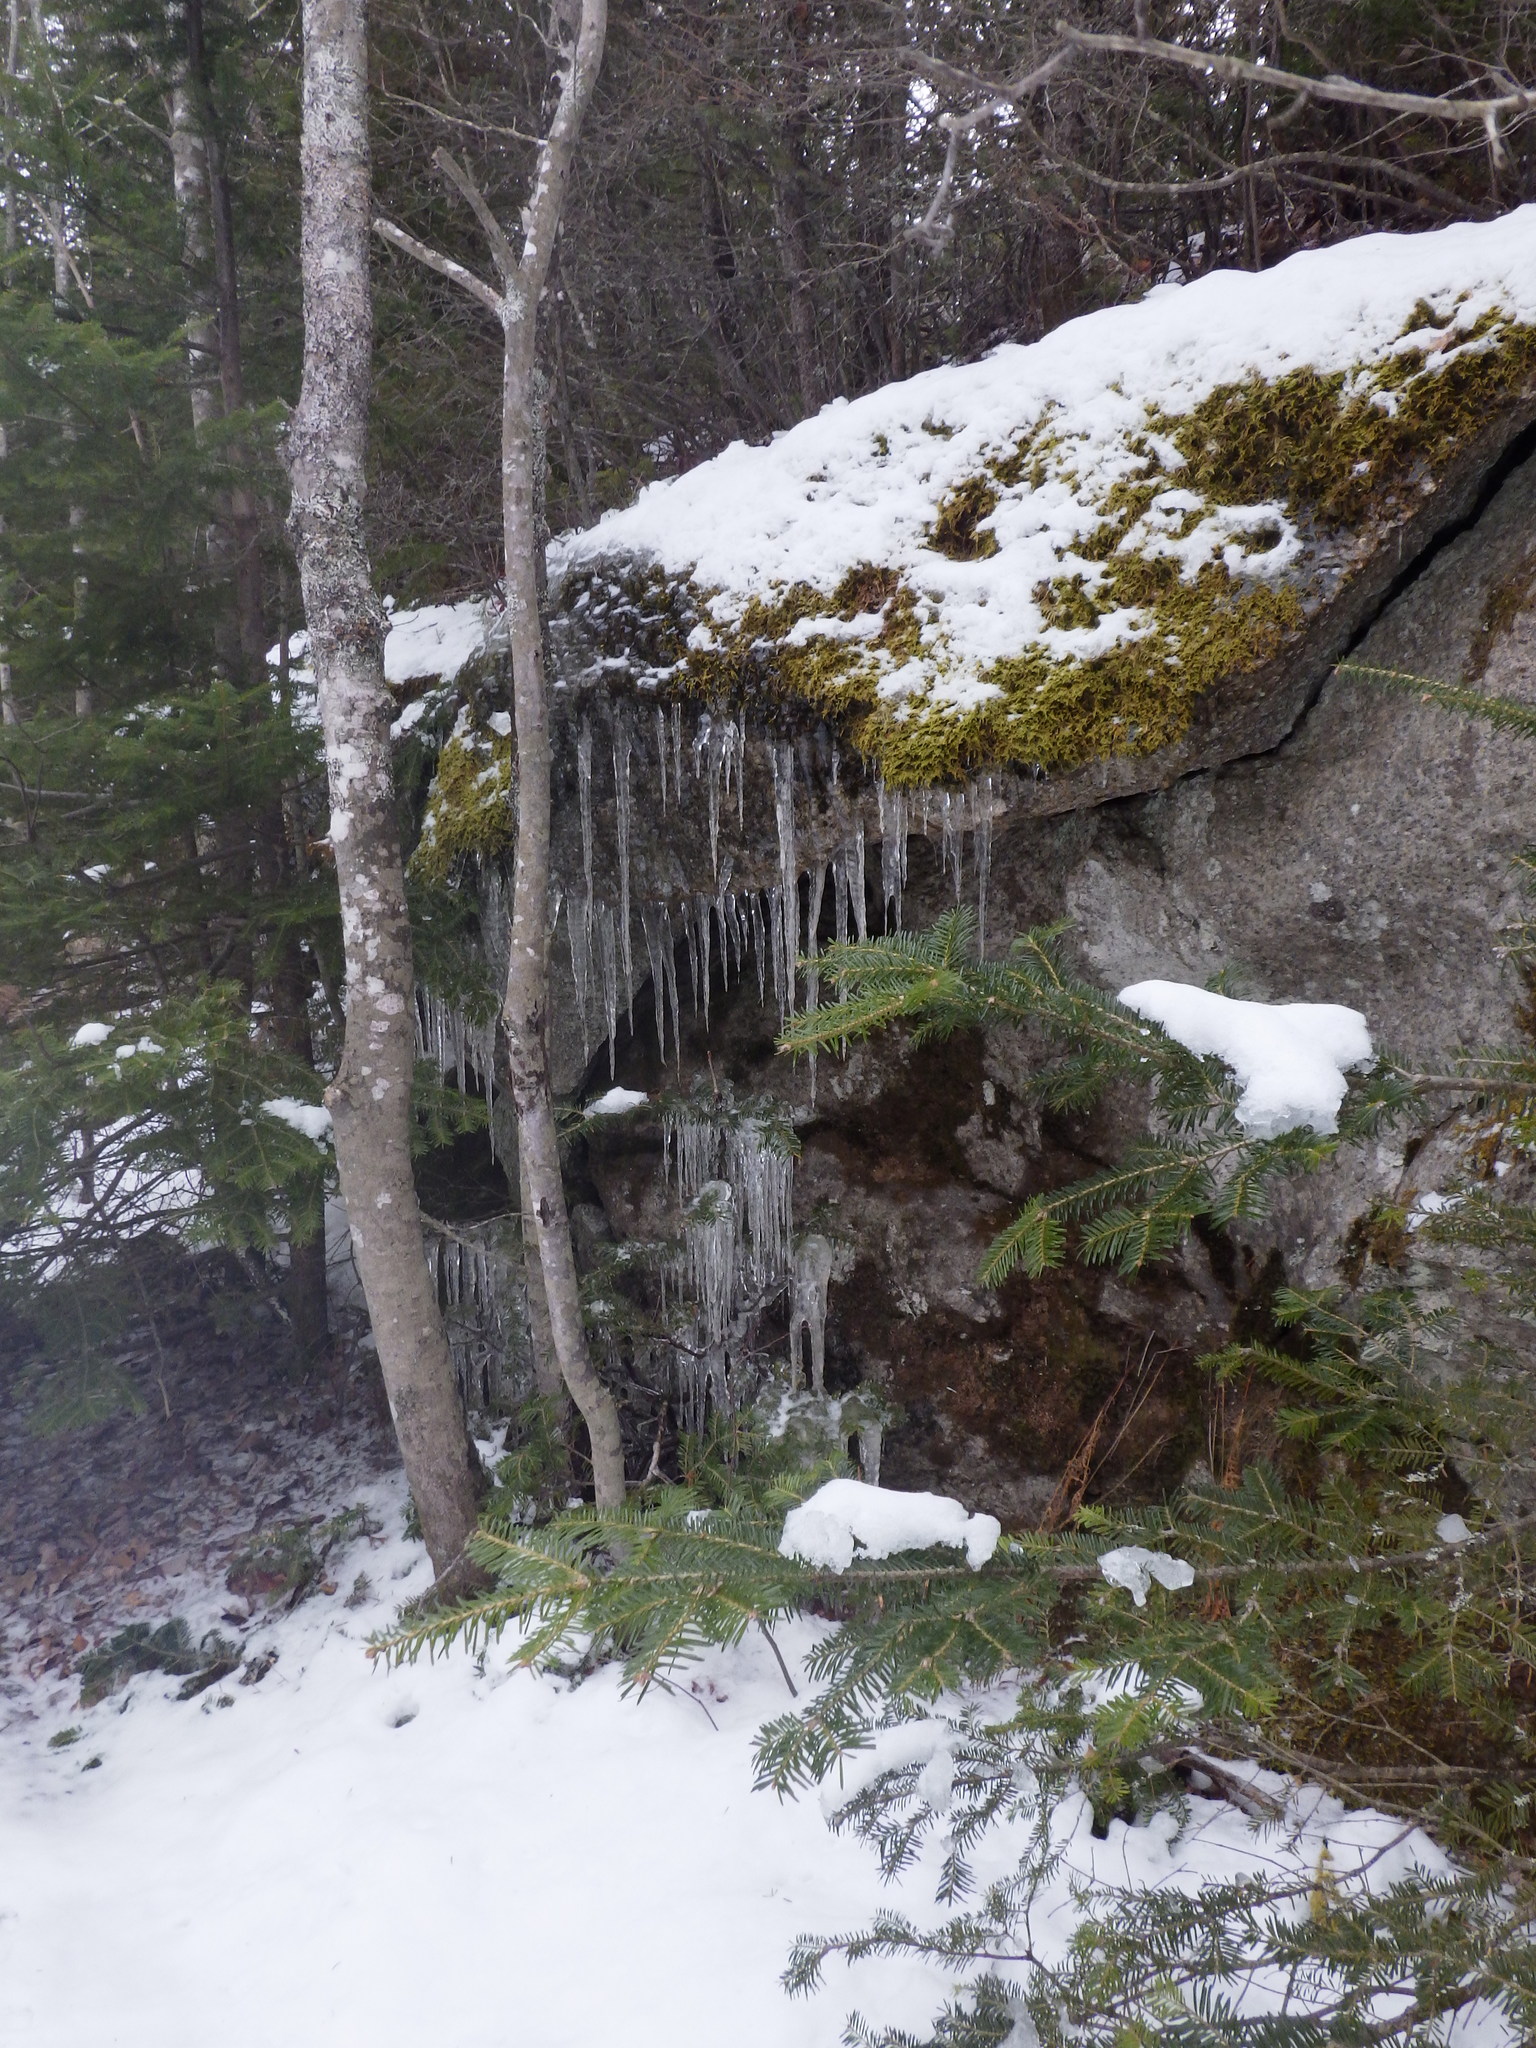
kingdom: Plantae
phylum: Tracheophyta
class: Magnoliopsida
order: Fagales
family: Betulaceae
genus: Betula
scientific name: Betula papyrifera
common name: Paper birch
